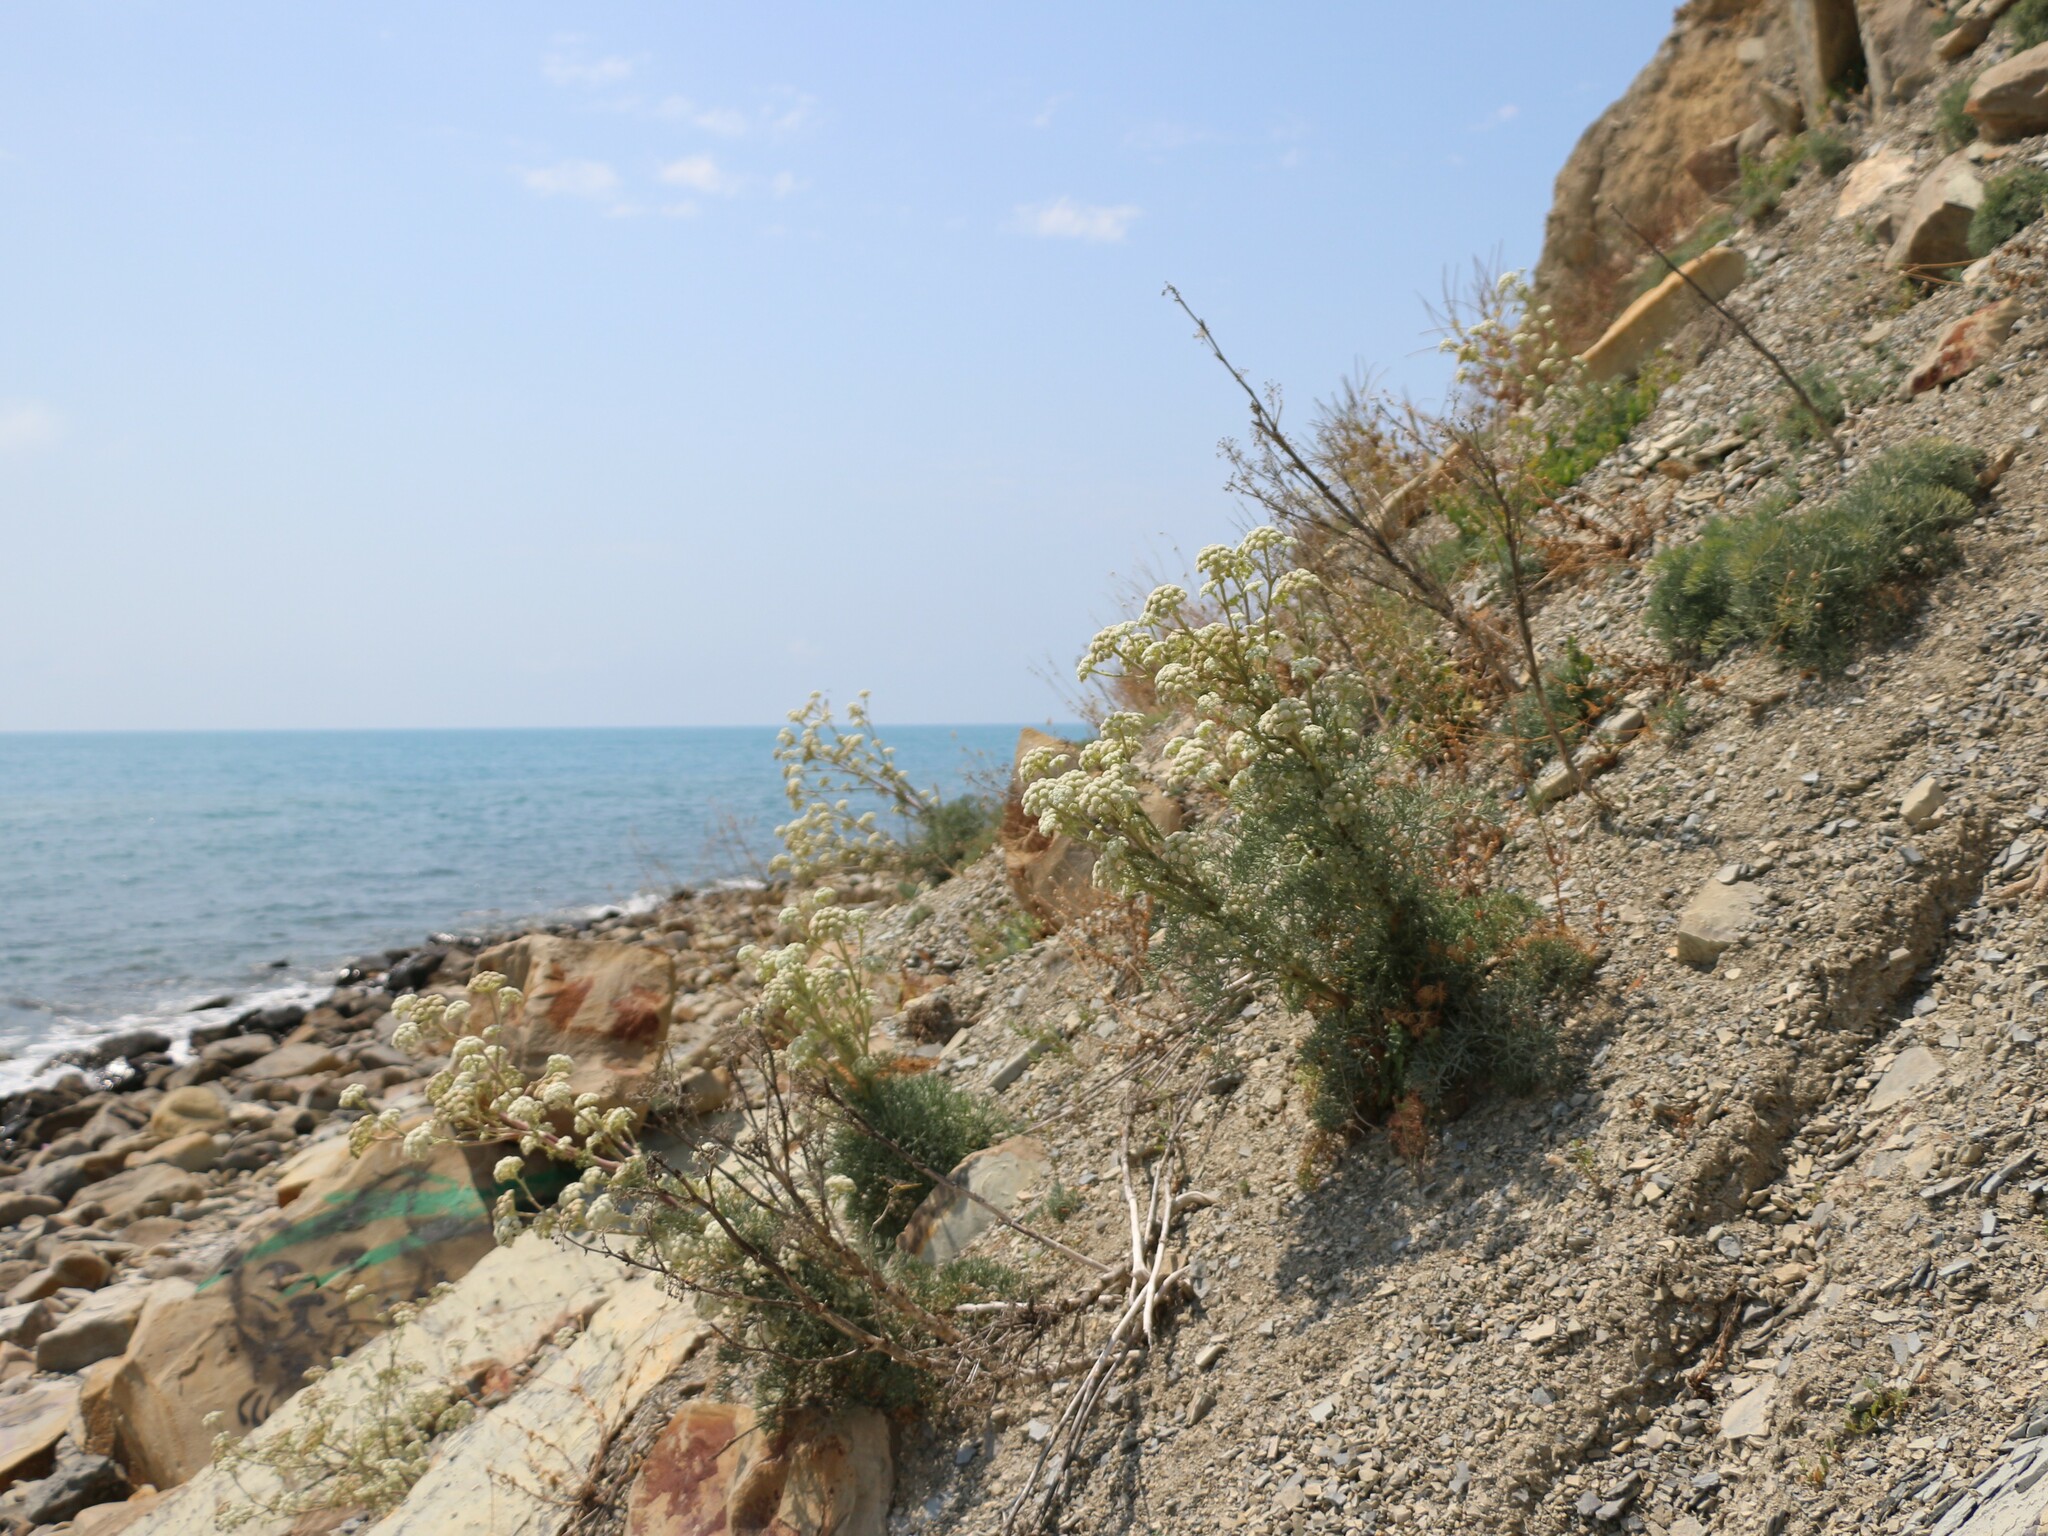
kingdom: Plantae
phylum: Tracheophyta
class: Magnoliopsida
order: Apiales
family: Apiaceae
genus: Seseli
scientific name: Seseli ponticum
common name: Pontic seseli
